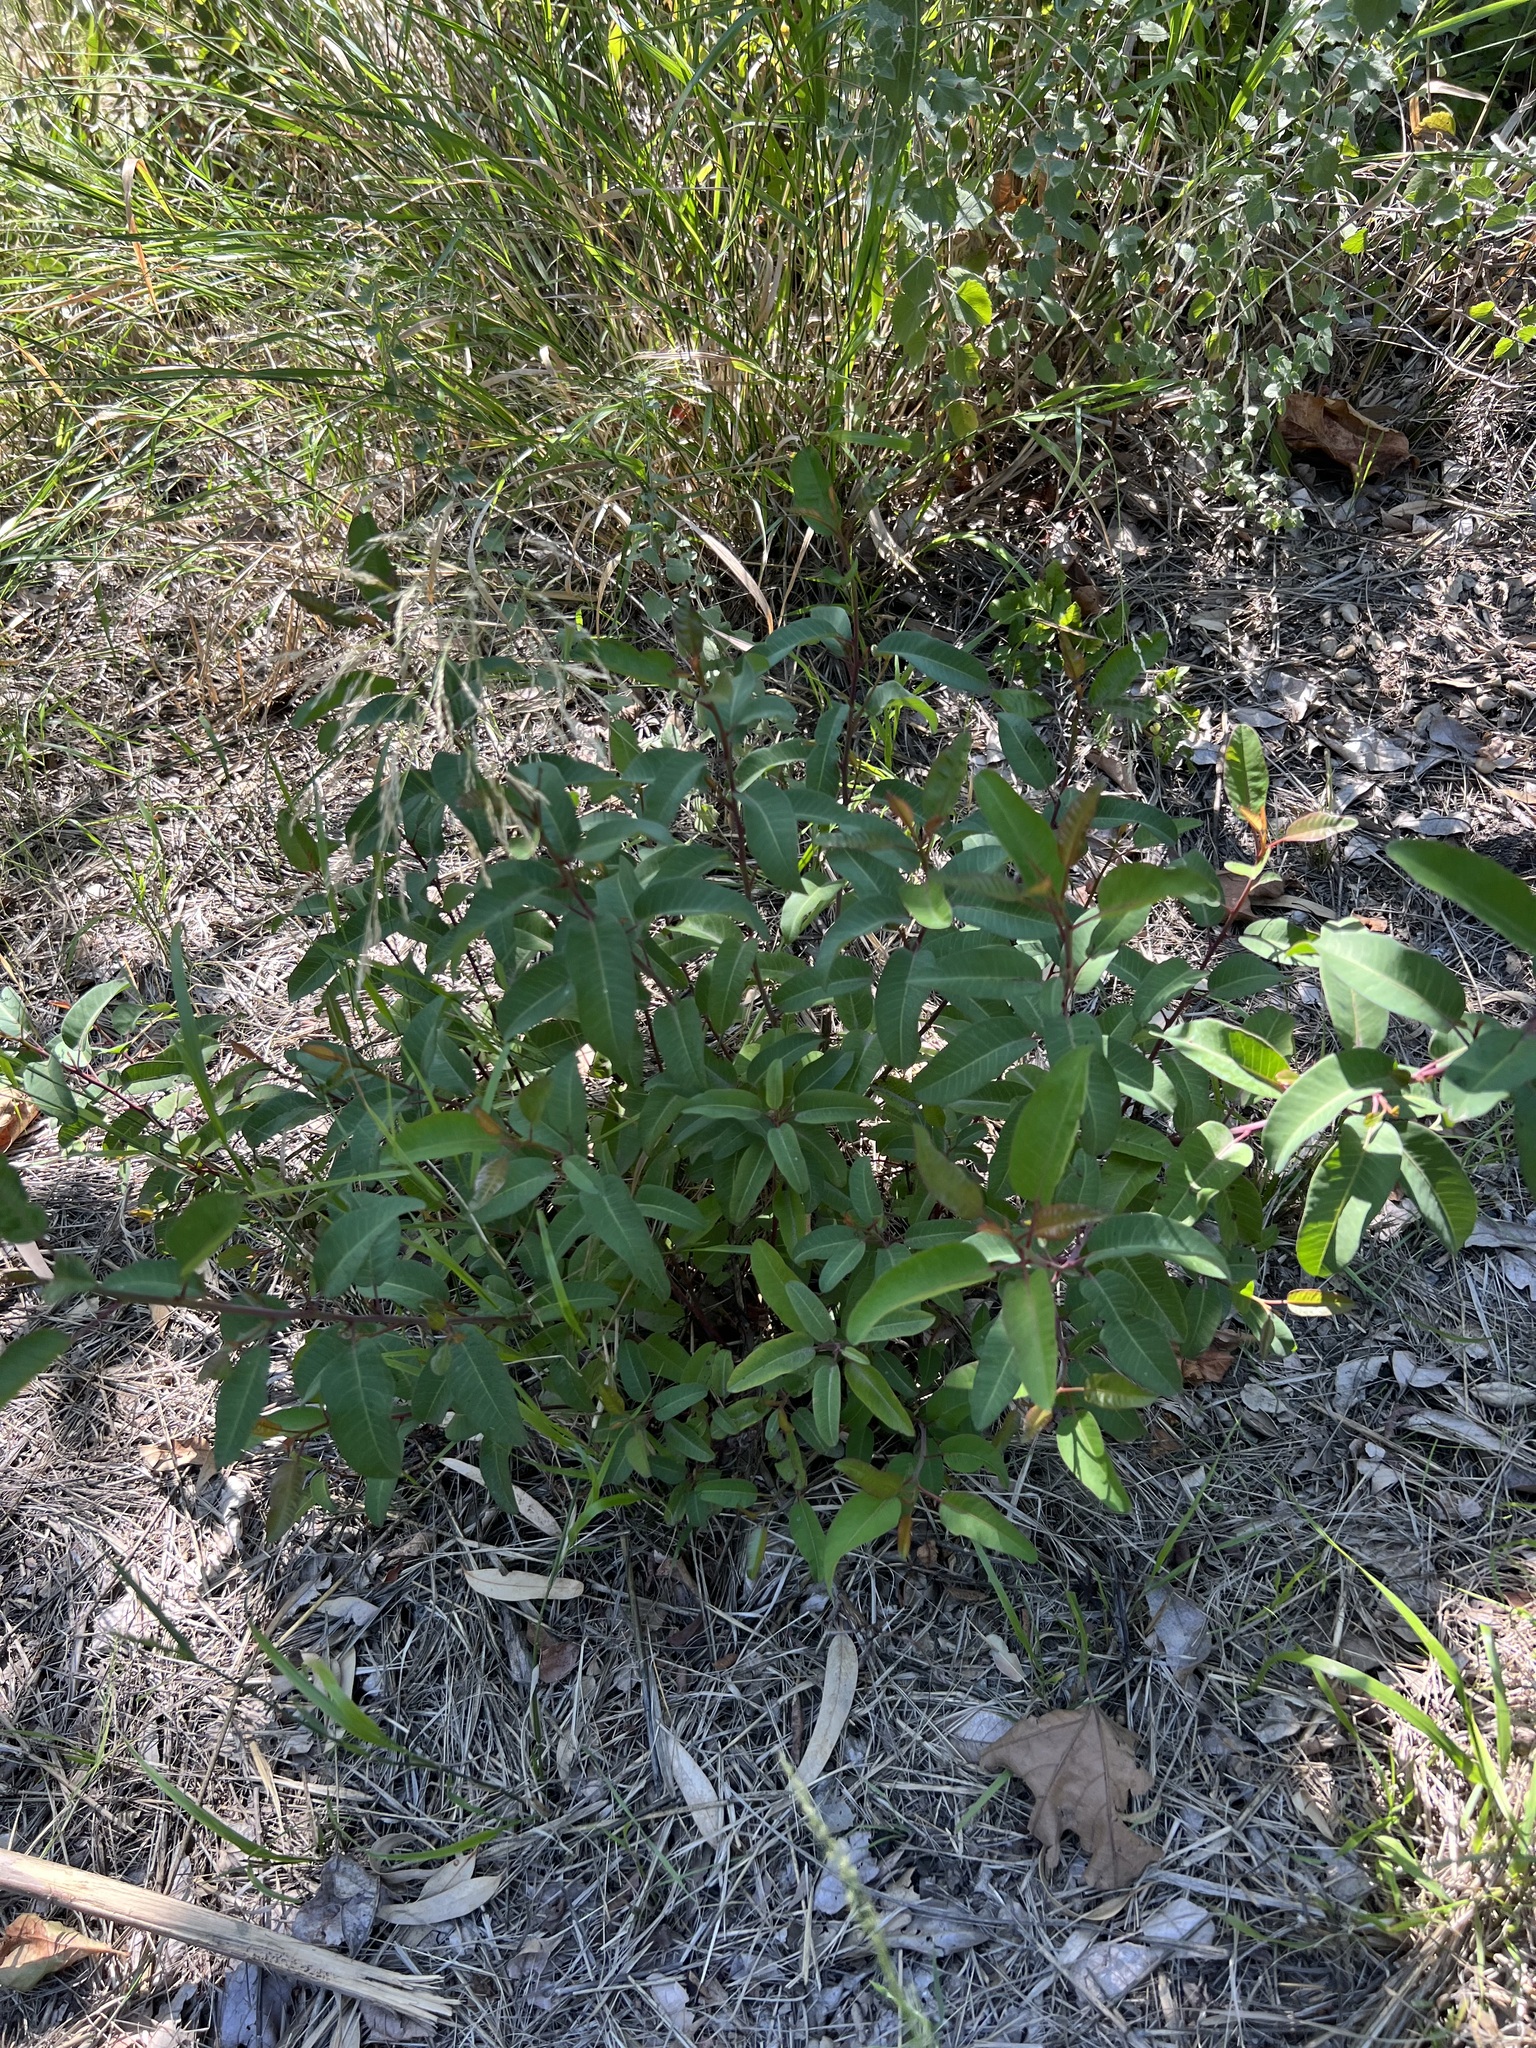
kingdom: Plantae
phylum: Tracheophyta
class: Magnoliopsida
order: Sapindales
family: Anacardiaceae
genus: Malosma
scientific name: Malosma laurina
